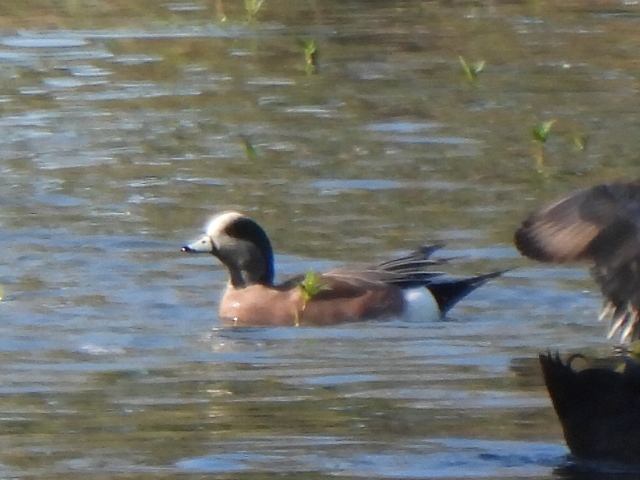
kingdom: Animalia
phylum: Chordata
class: Aves
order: Anseriformes
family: Anatidae
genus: Mareca
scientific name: Mareca americana
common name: American wigeon
